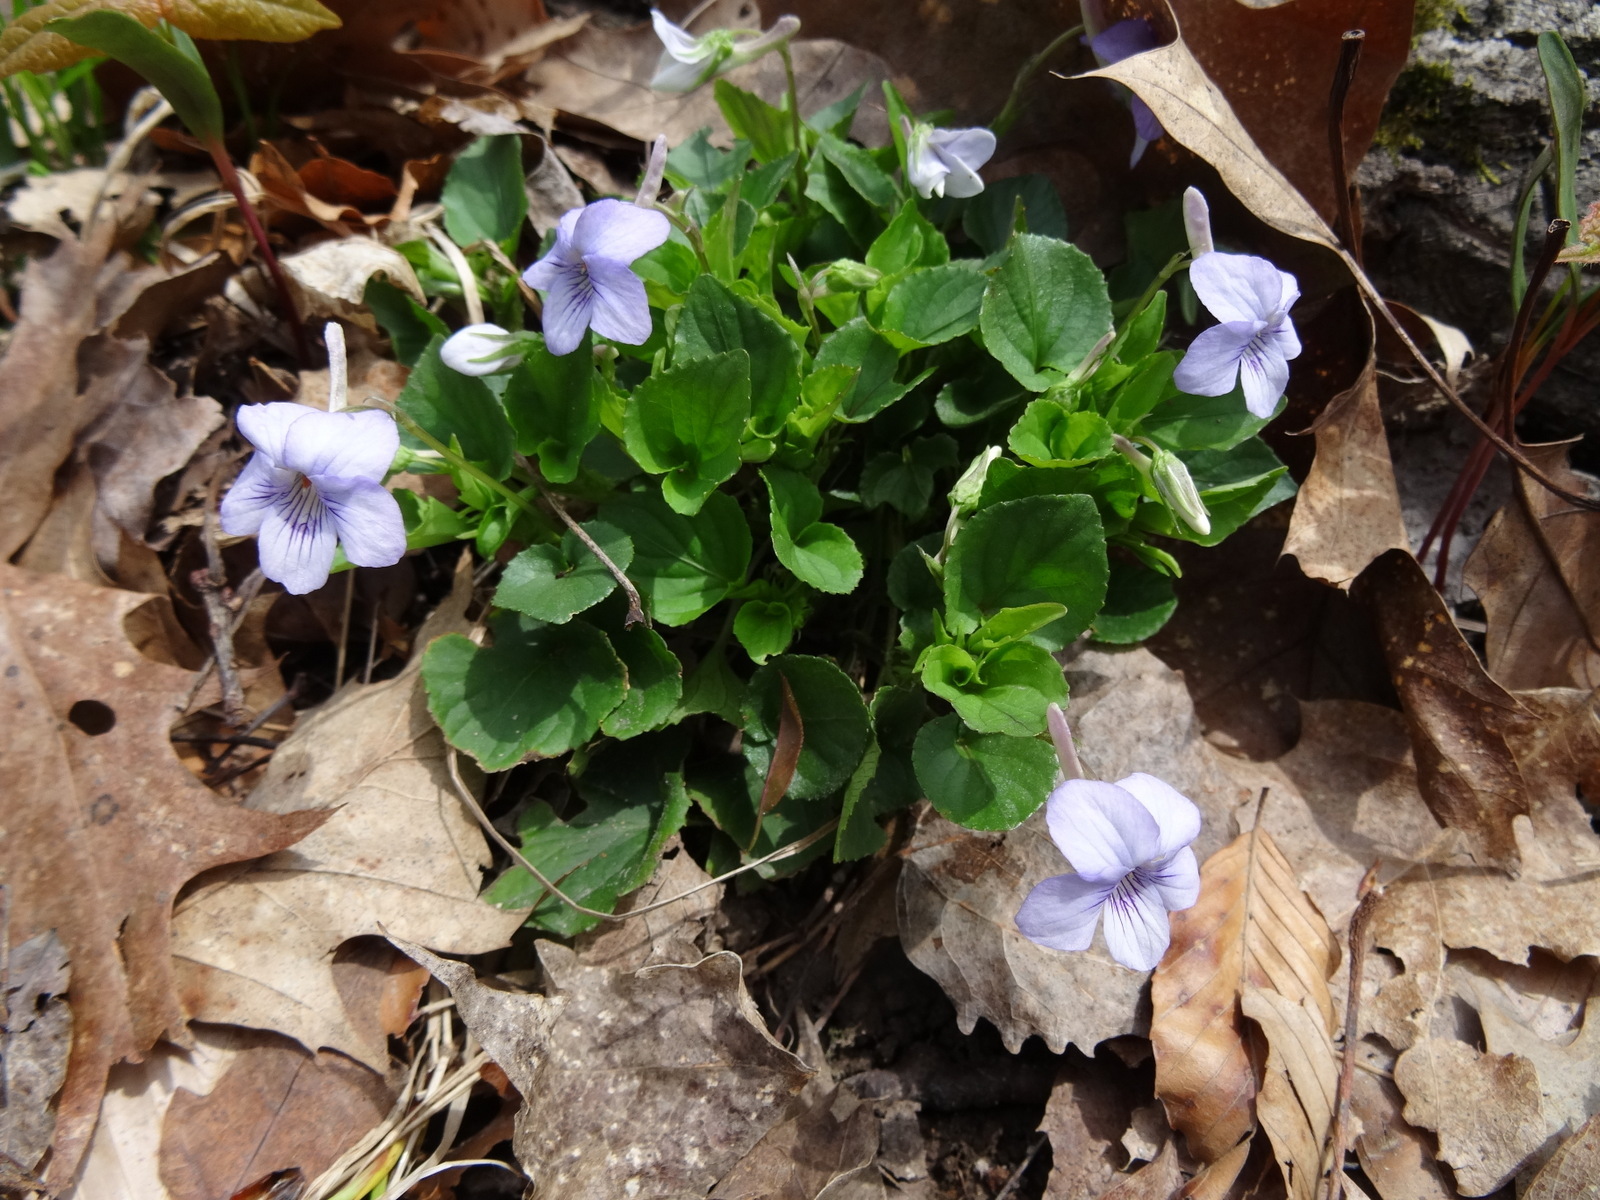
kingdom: Plantae
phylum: Tracheophyta
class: Magnoliopsida
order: Malpighiales
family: Violaceae
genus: Viola
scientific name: Viola rostrata
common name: Long-spur violet
